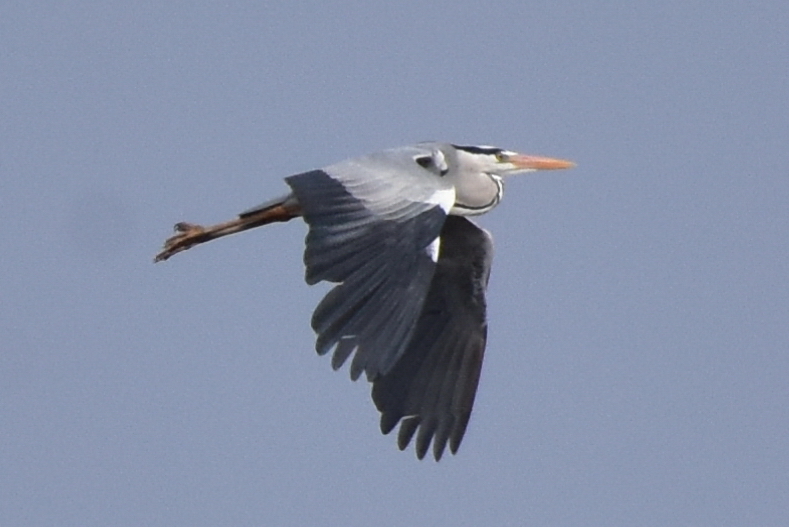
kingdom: Animalia
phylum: Chordata
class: Aves
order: Pelecaniformes
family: Ardeidae
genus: Ardea
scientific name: Ardea cinerea
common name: Grey heron
